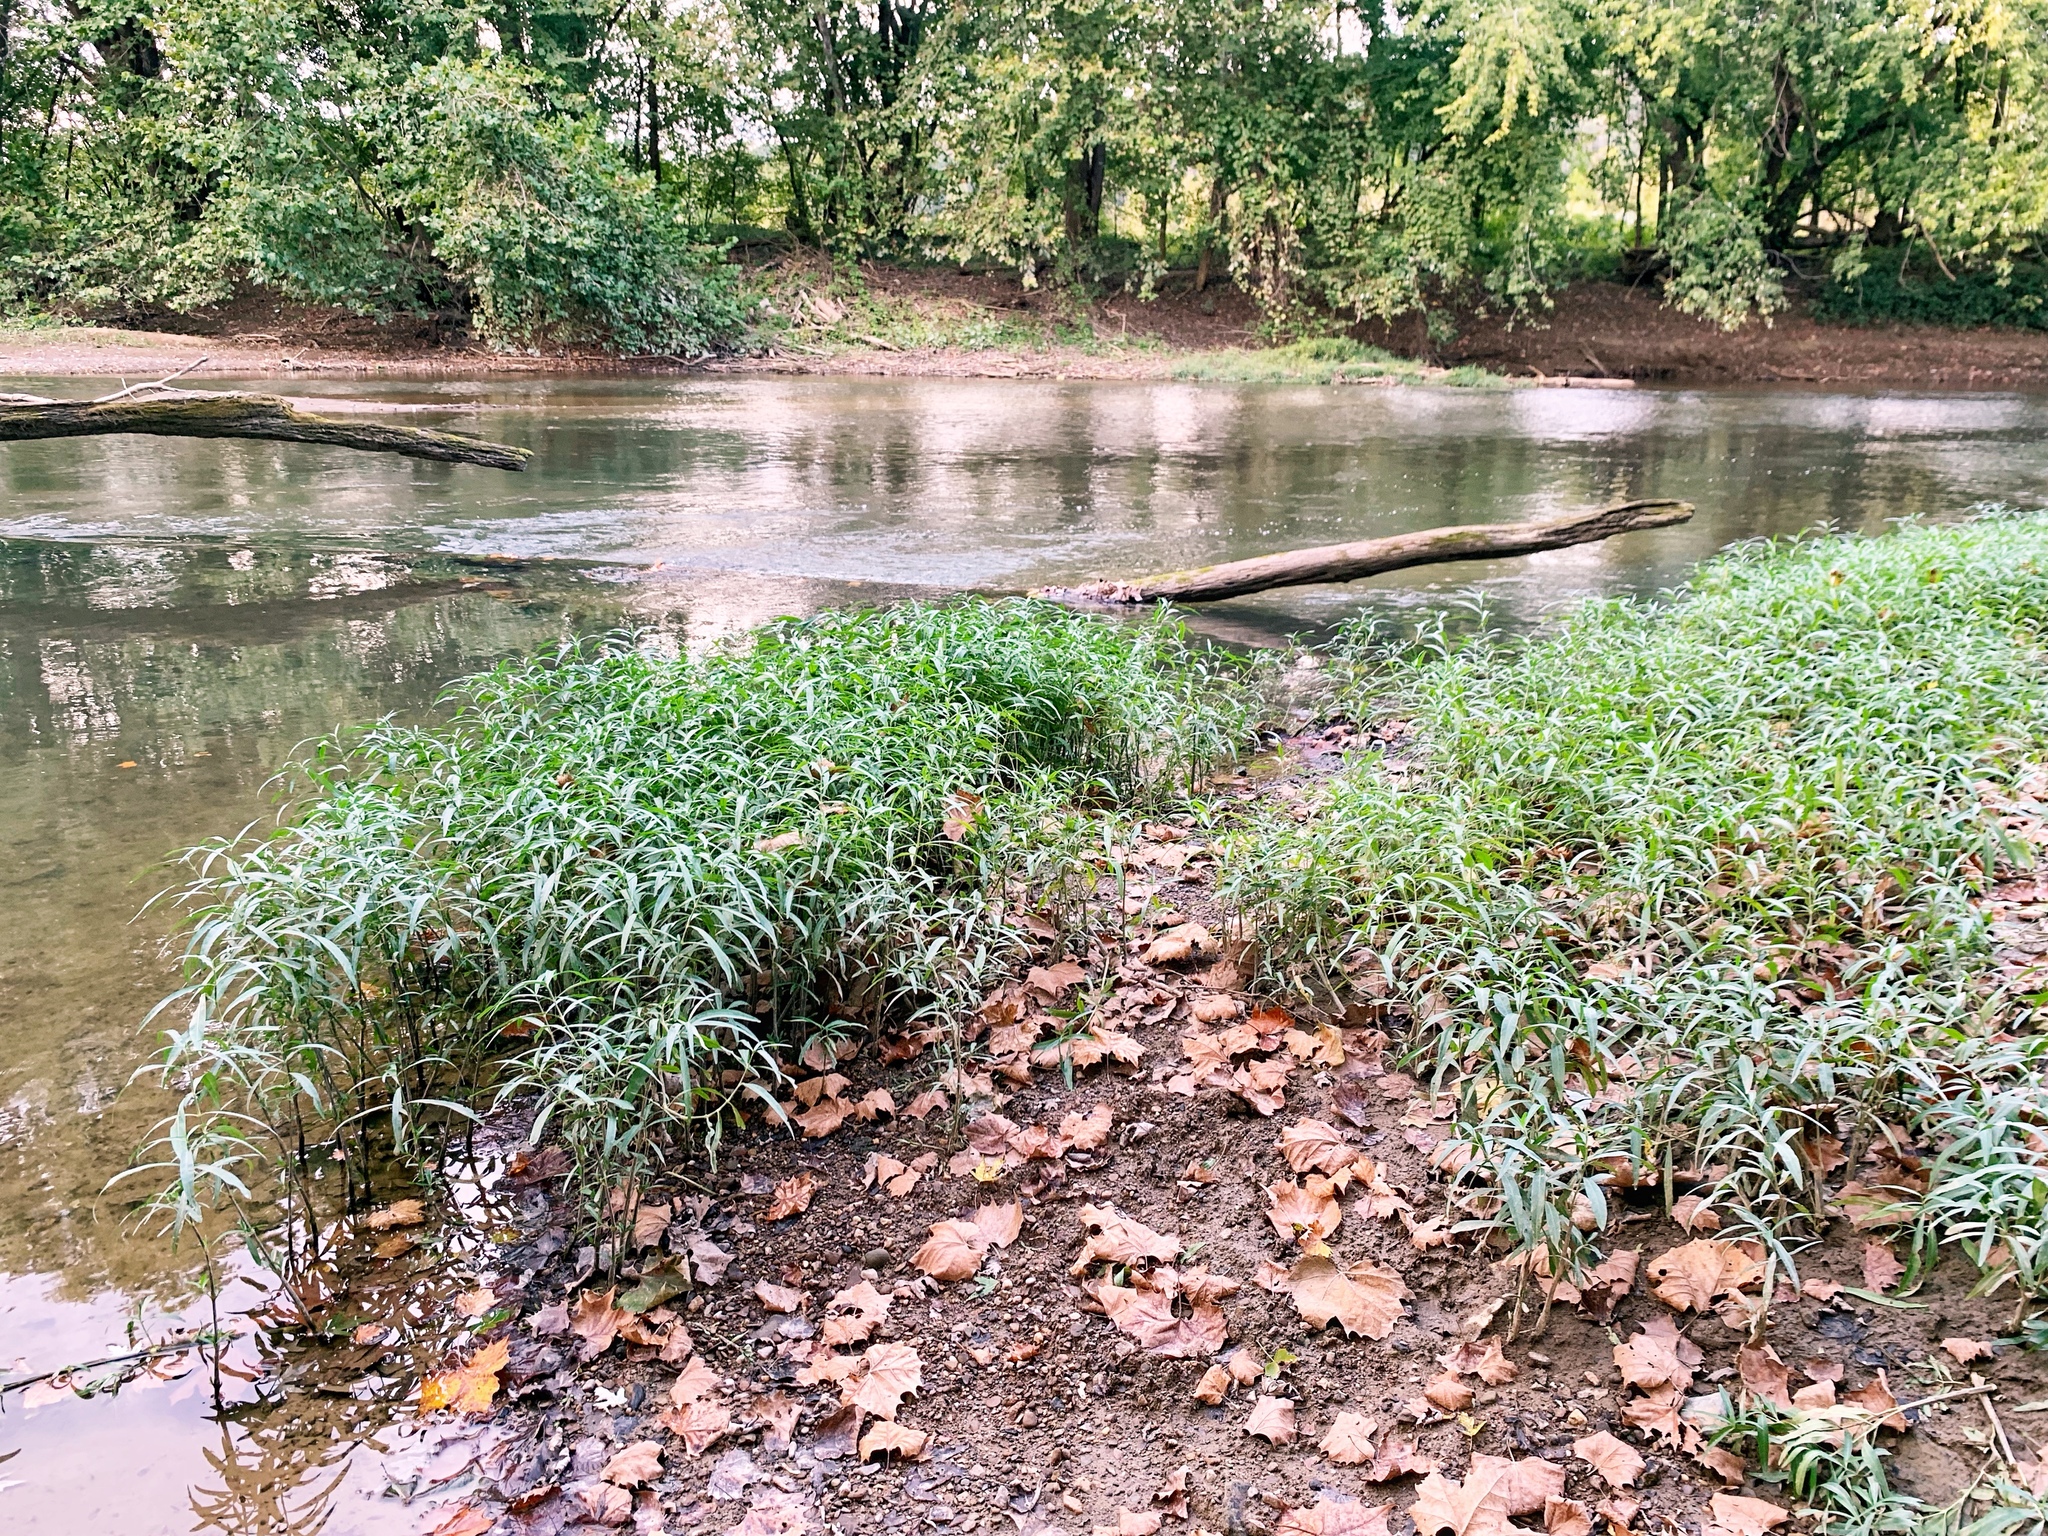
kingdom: Plantae
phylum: Tracheophyta
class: Magnoliopsida
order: Lamiales
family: Acanthaceae
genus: Dianthera
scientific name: Dianthera americana
